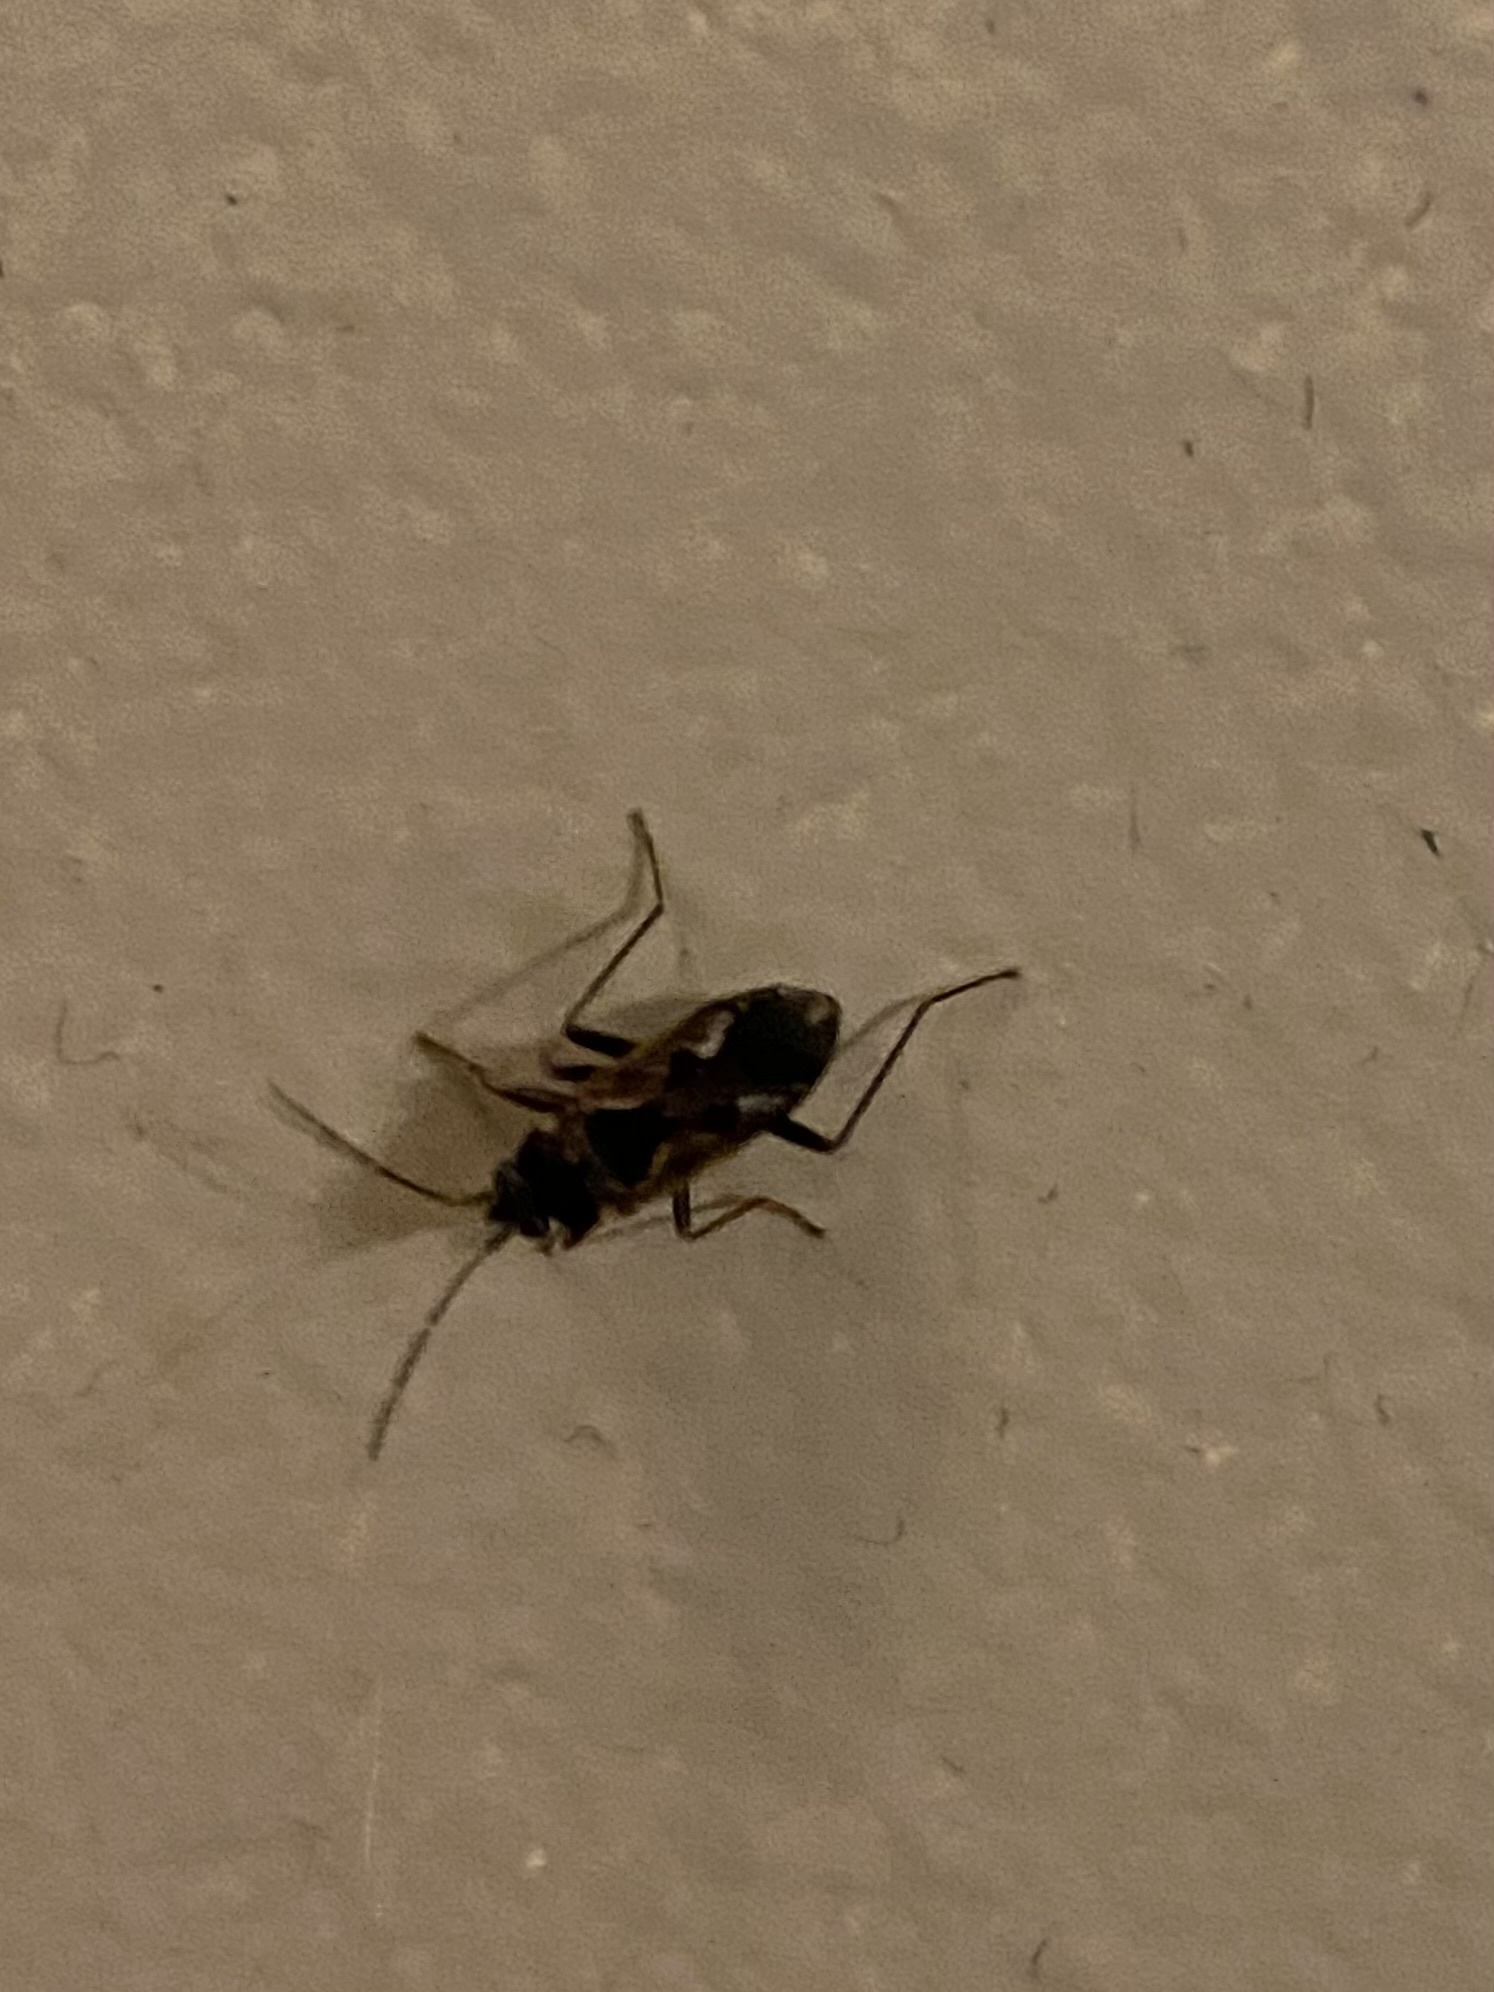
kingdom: Animalia
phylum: Arthropoda
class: Insecta
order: Hemiptera
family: Rhyparochromidae
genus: Rhyparochromus
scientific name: Rhyparochromus vulgaris
